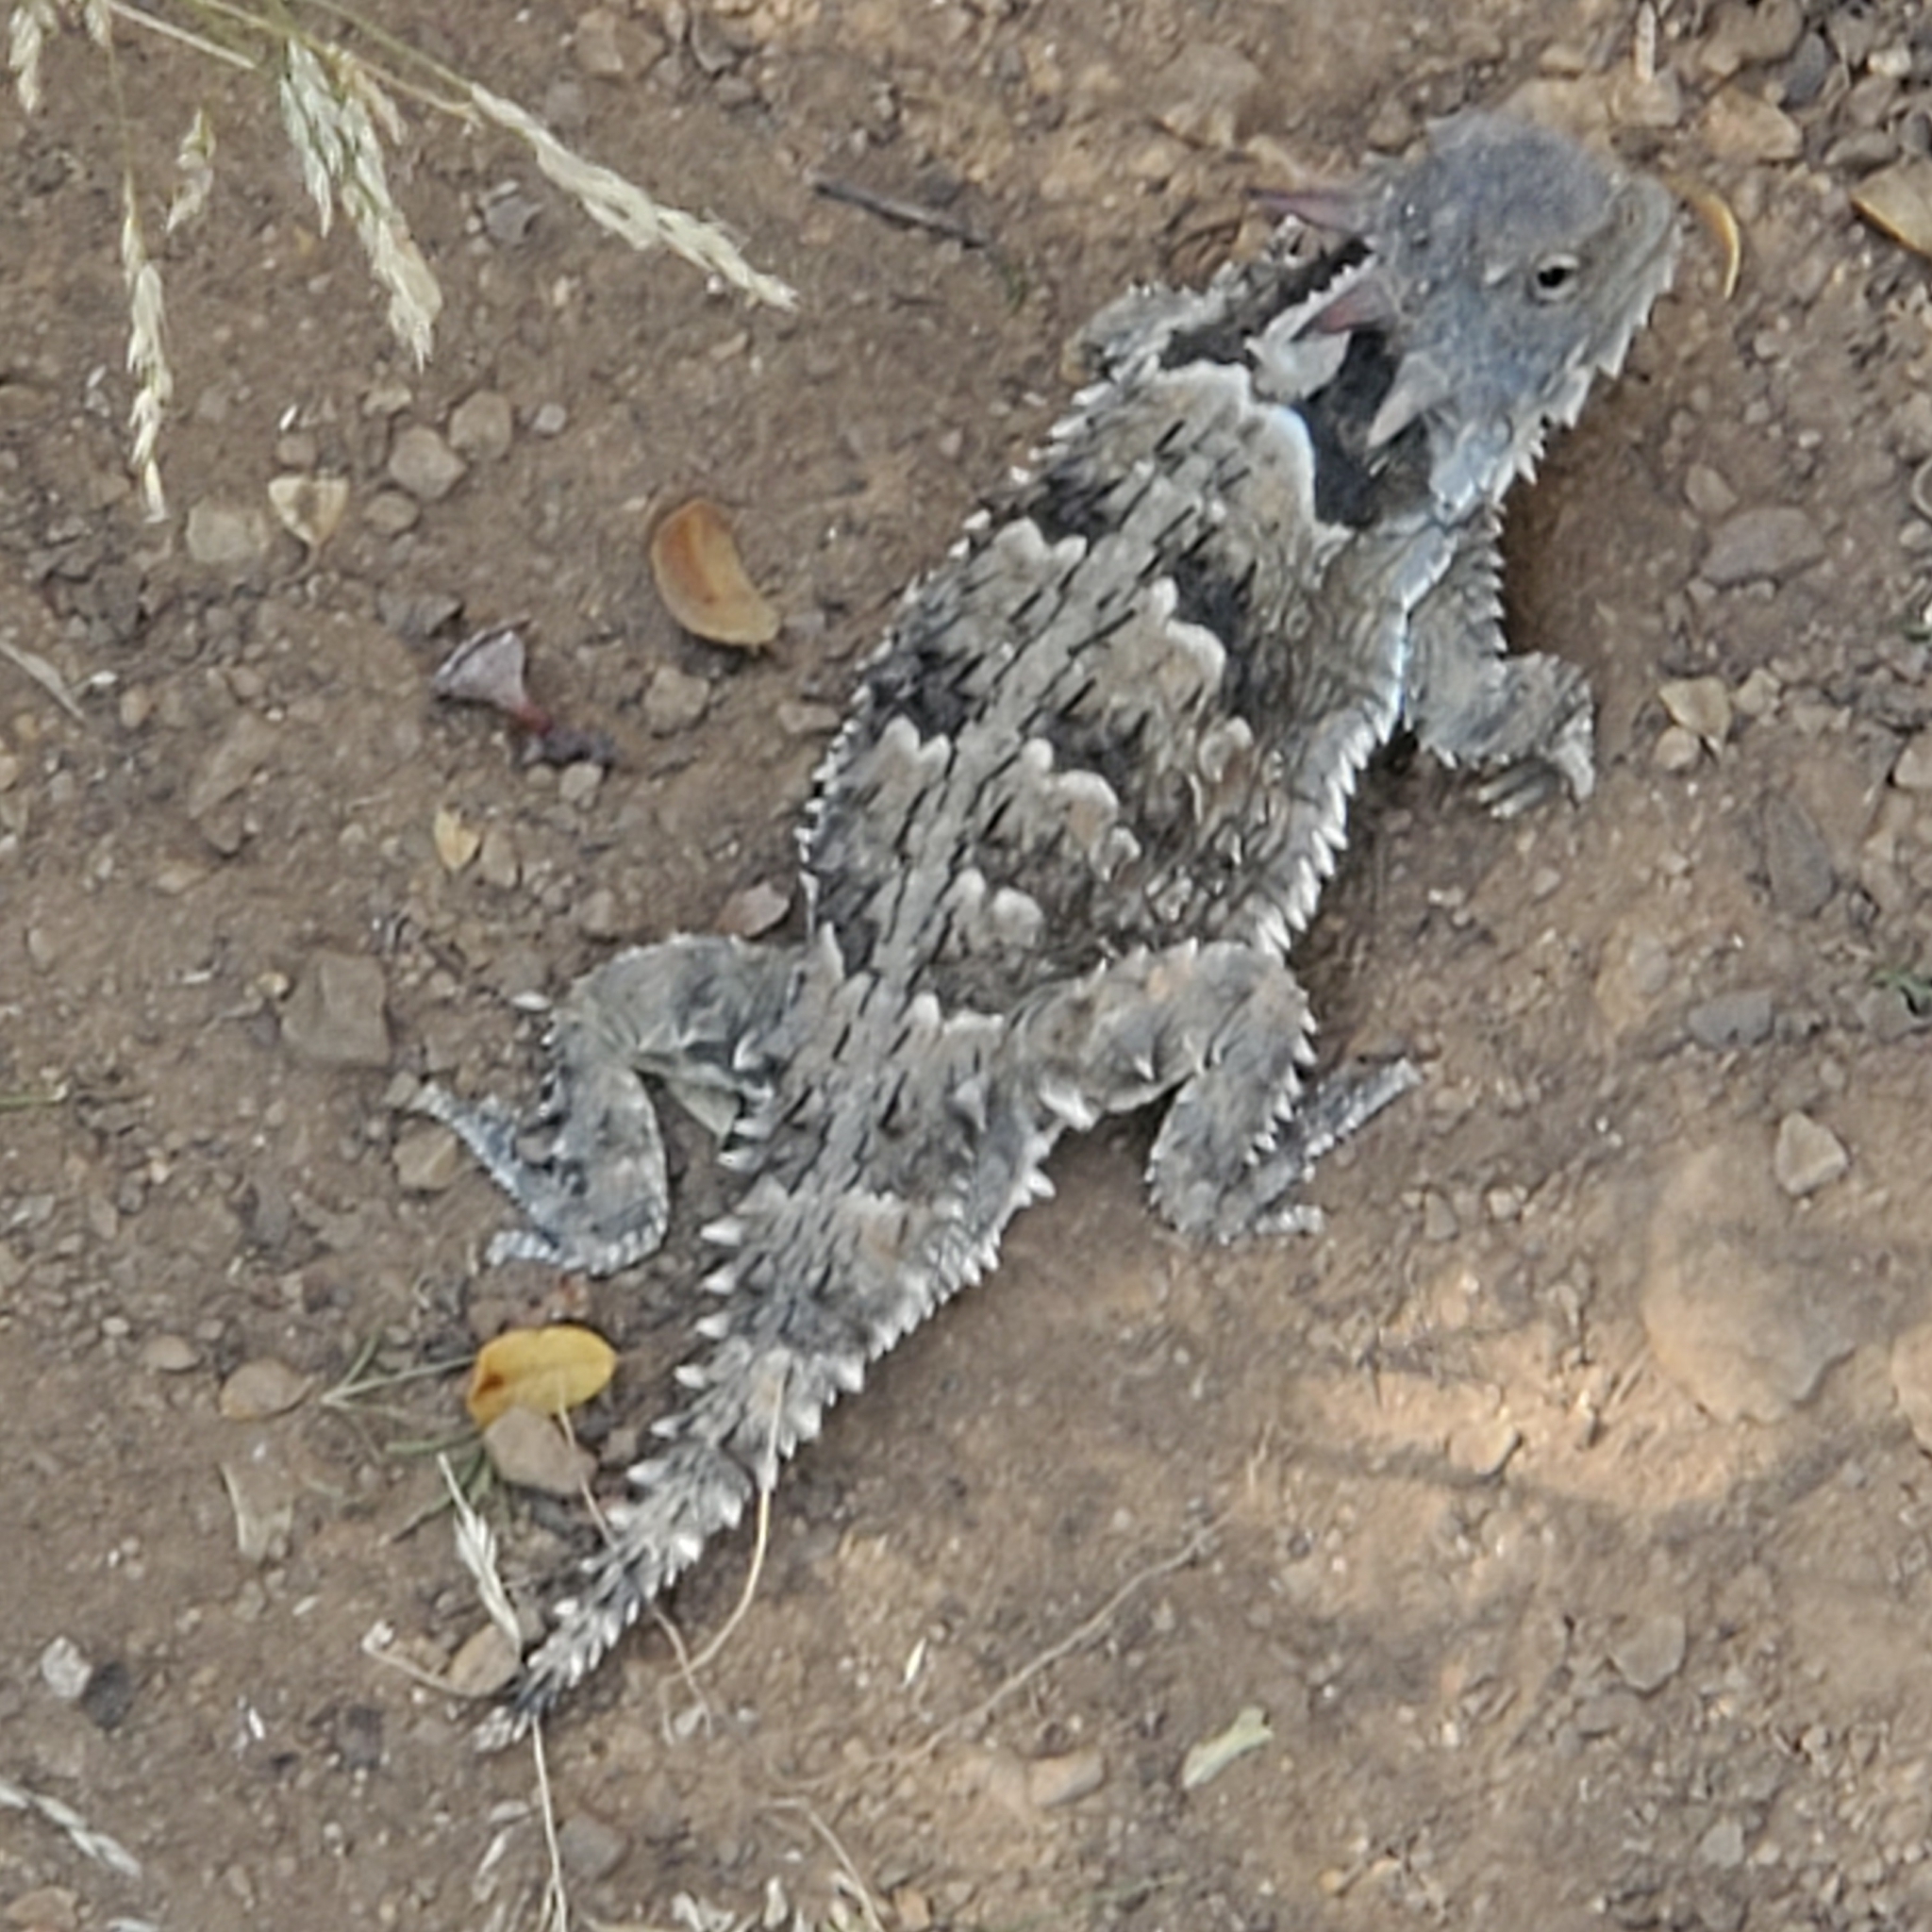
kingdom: Animalia
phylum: Chordata
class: Squamata
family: Phrynosomatidae
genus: Phrynosoma
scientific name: Phrynosoma blainvillii
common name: San diego horned lizard
